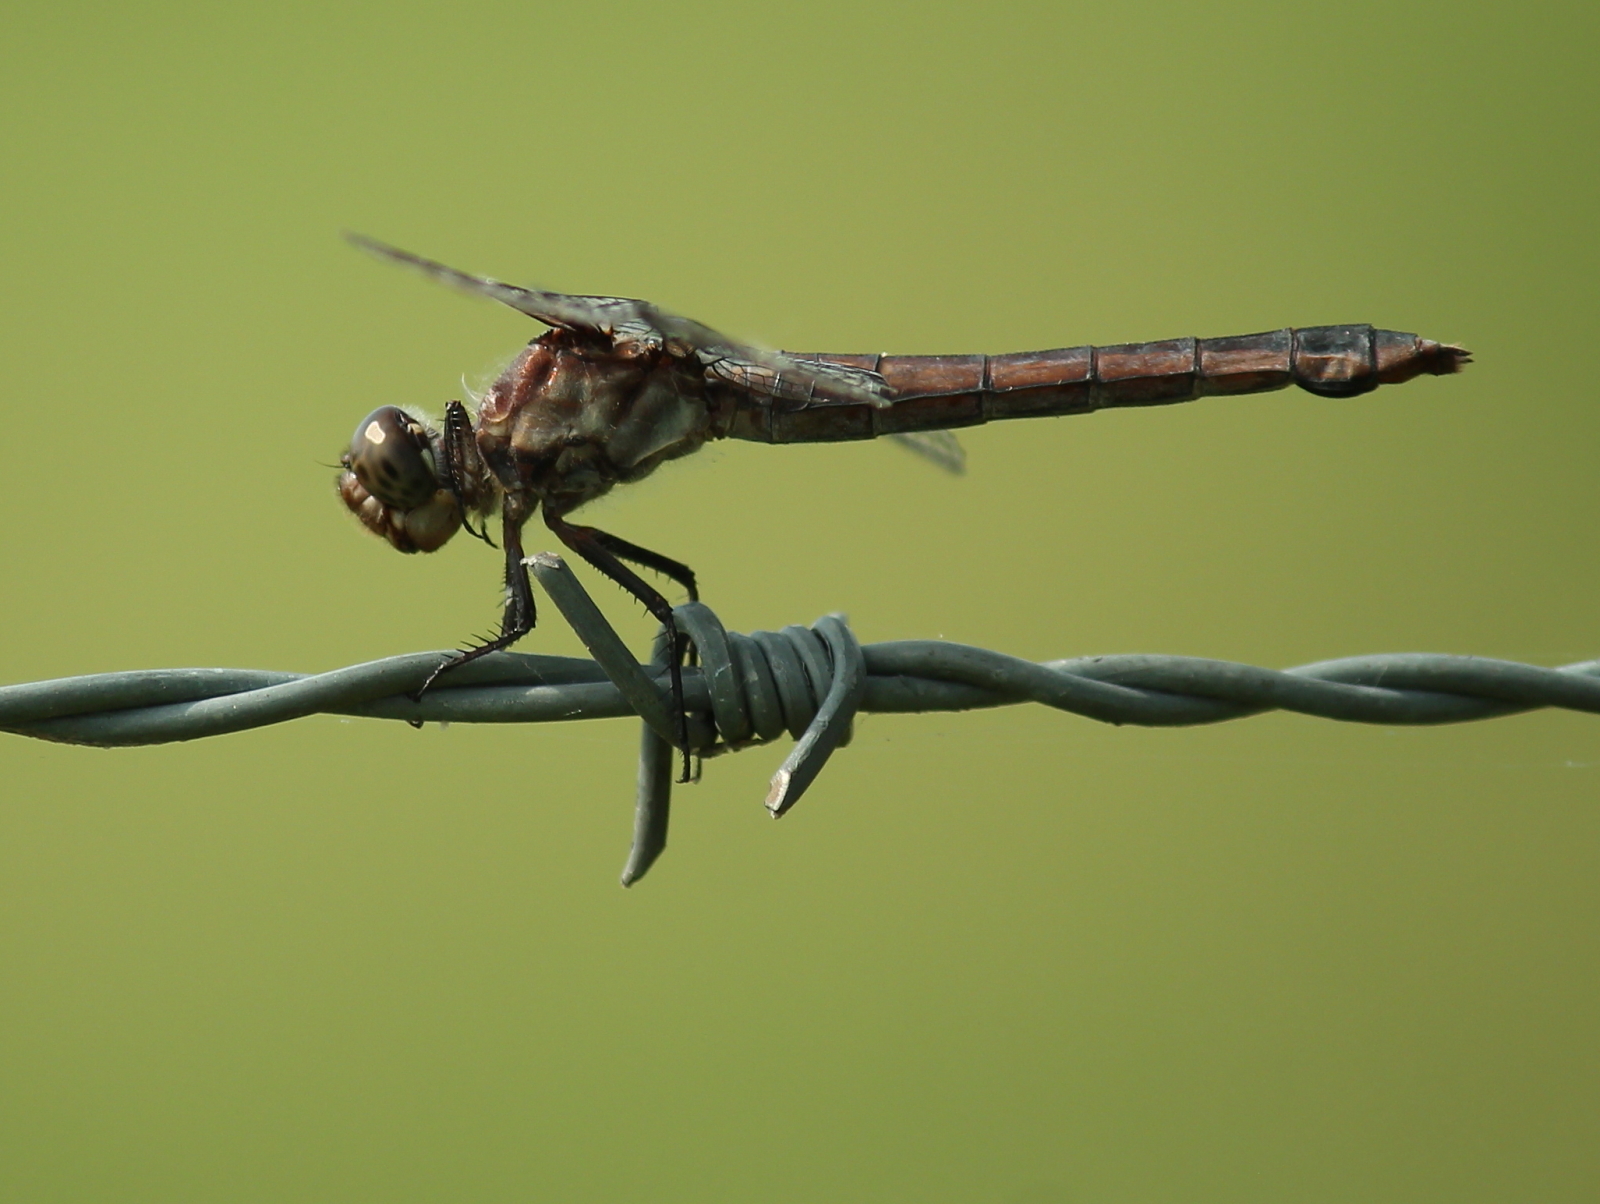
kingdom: Animalia
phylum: Arthropoda
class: Insecta
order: Odonata
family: Libellulidae
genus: Libellula
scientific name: Libellula incesta
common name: Slaty skimmer
